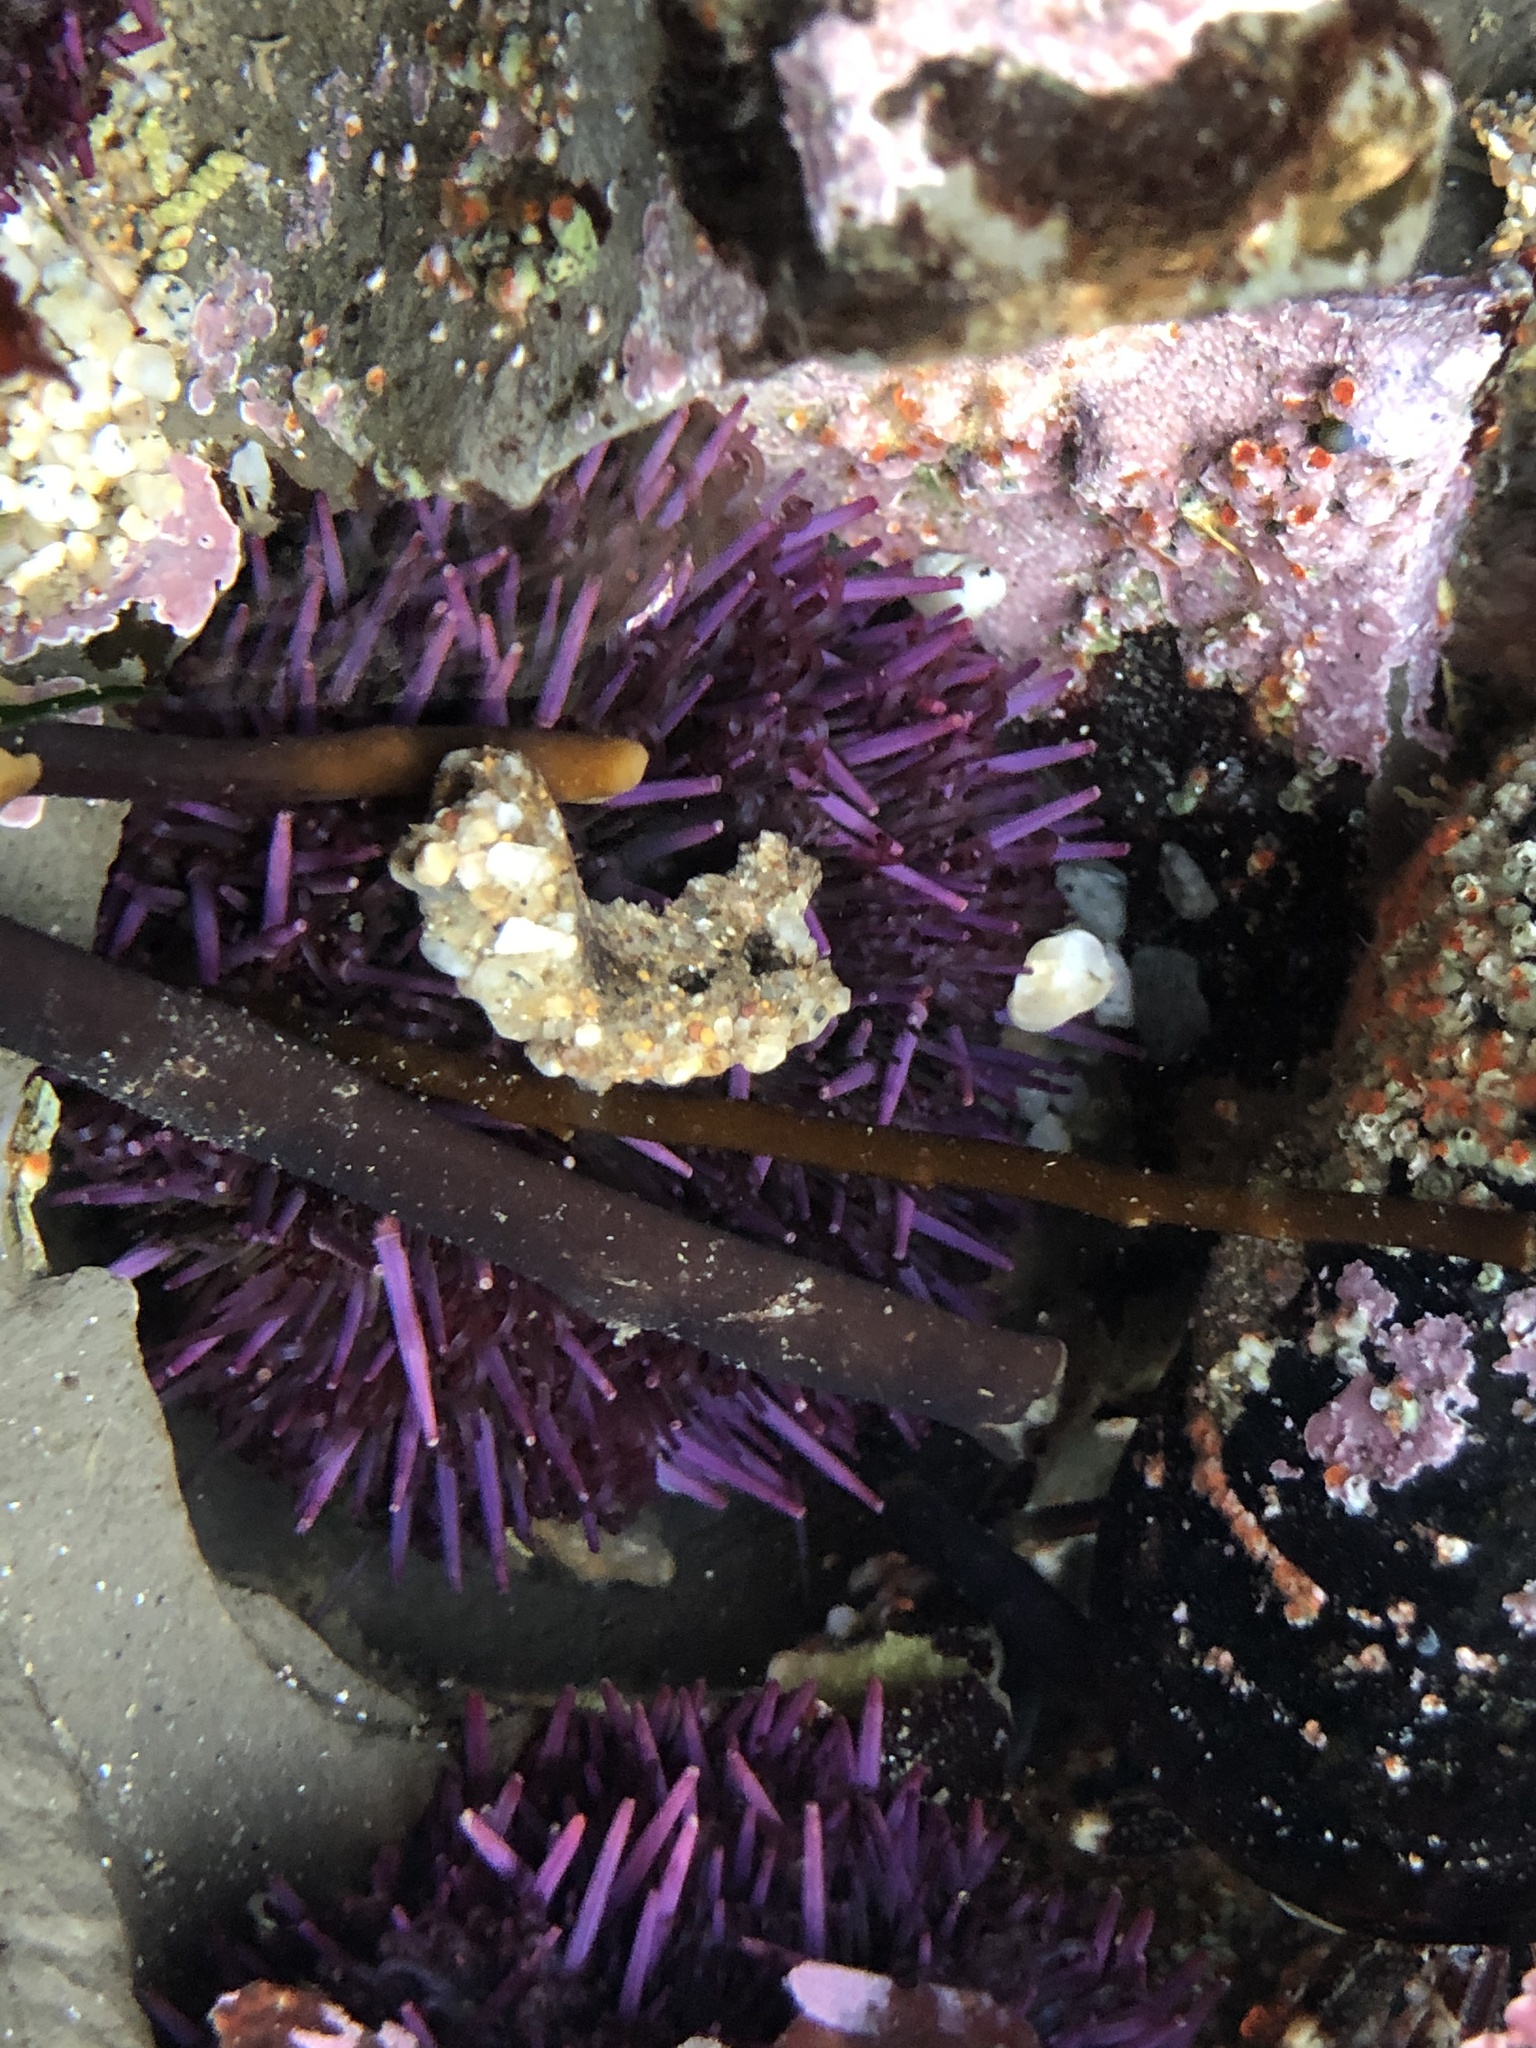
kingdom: Animalia
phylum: Echinodermata
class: Echinoidea
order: Camarodonta
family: Strongylocentrotidae
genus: Strongylocentrotus
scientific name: Strongylocentrotus purpuratus
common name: Purple sea urchin
